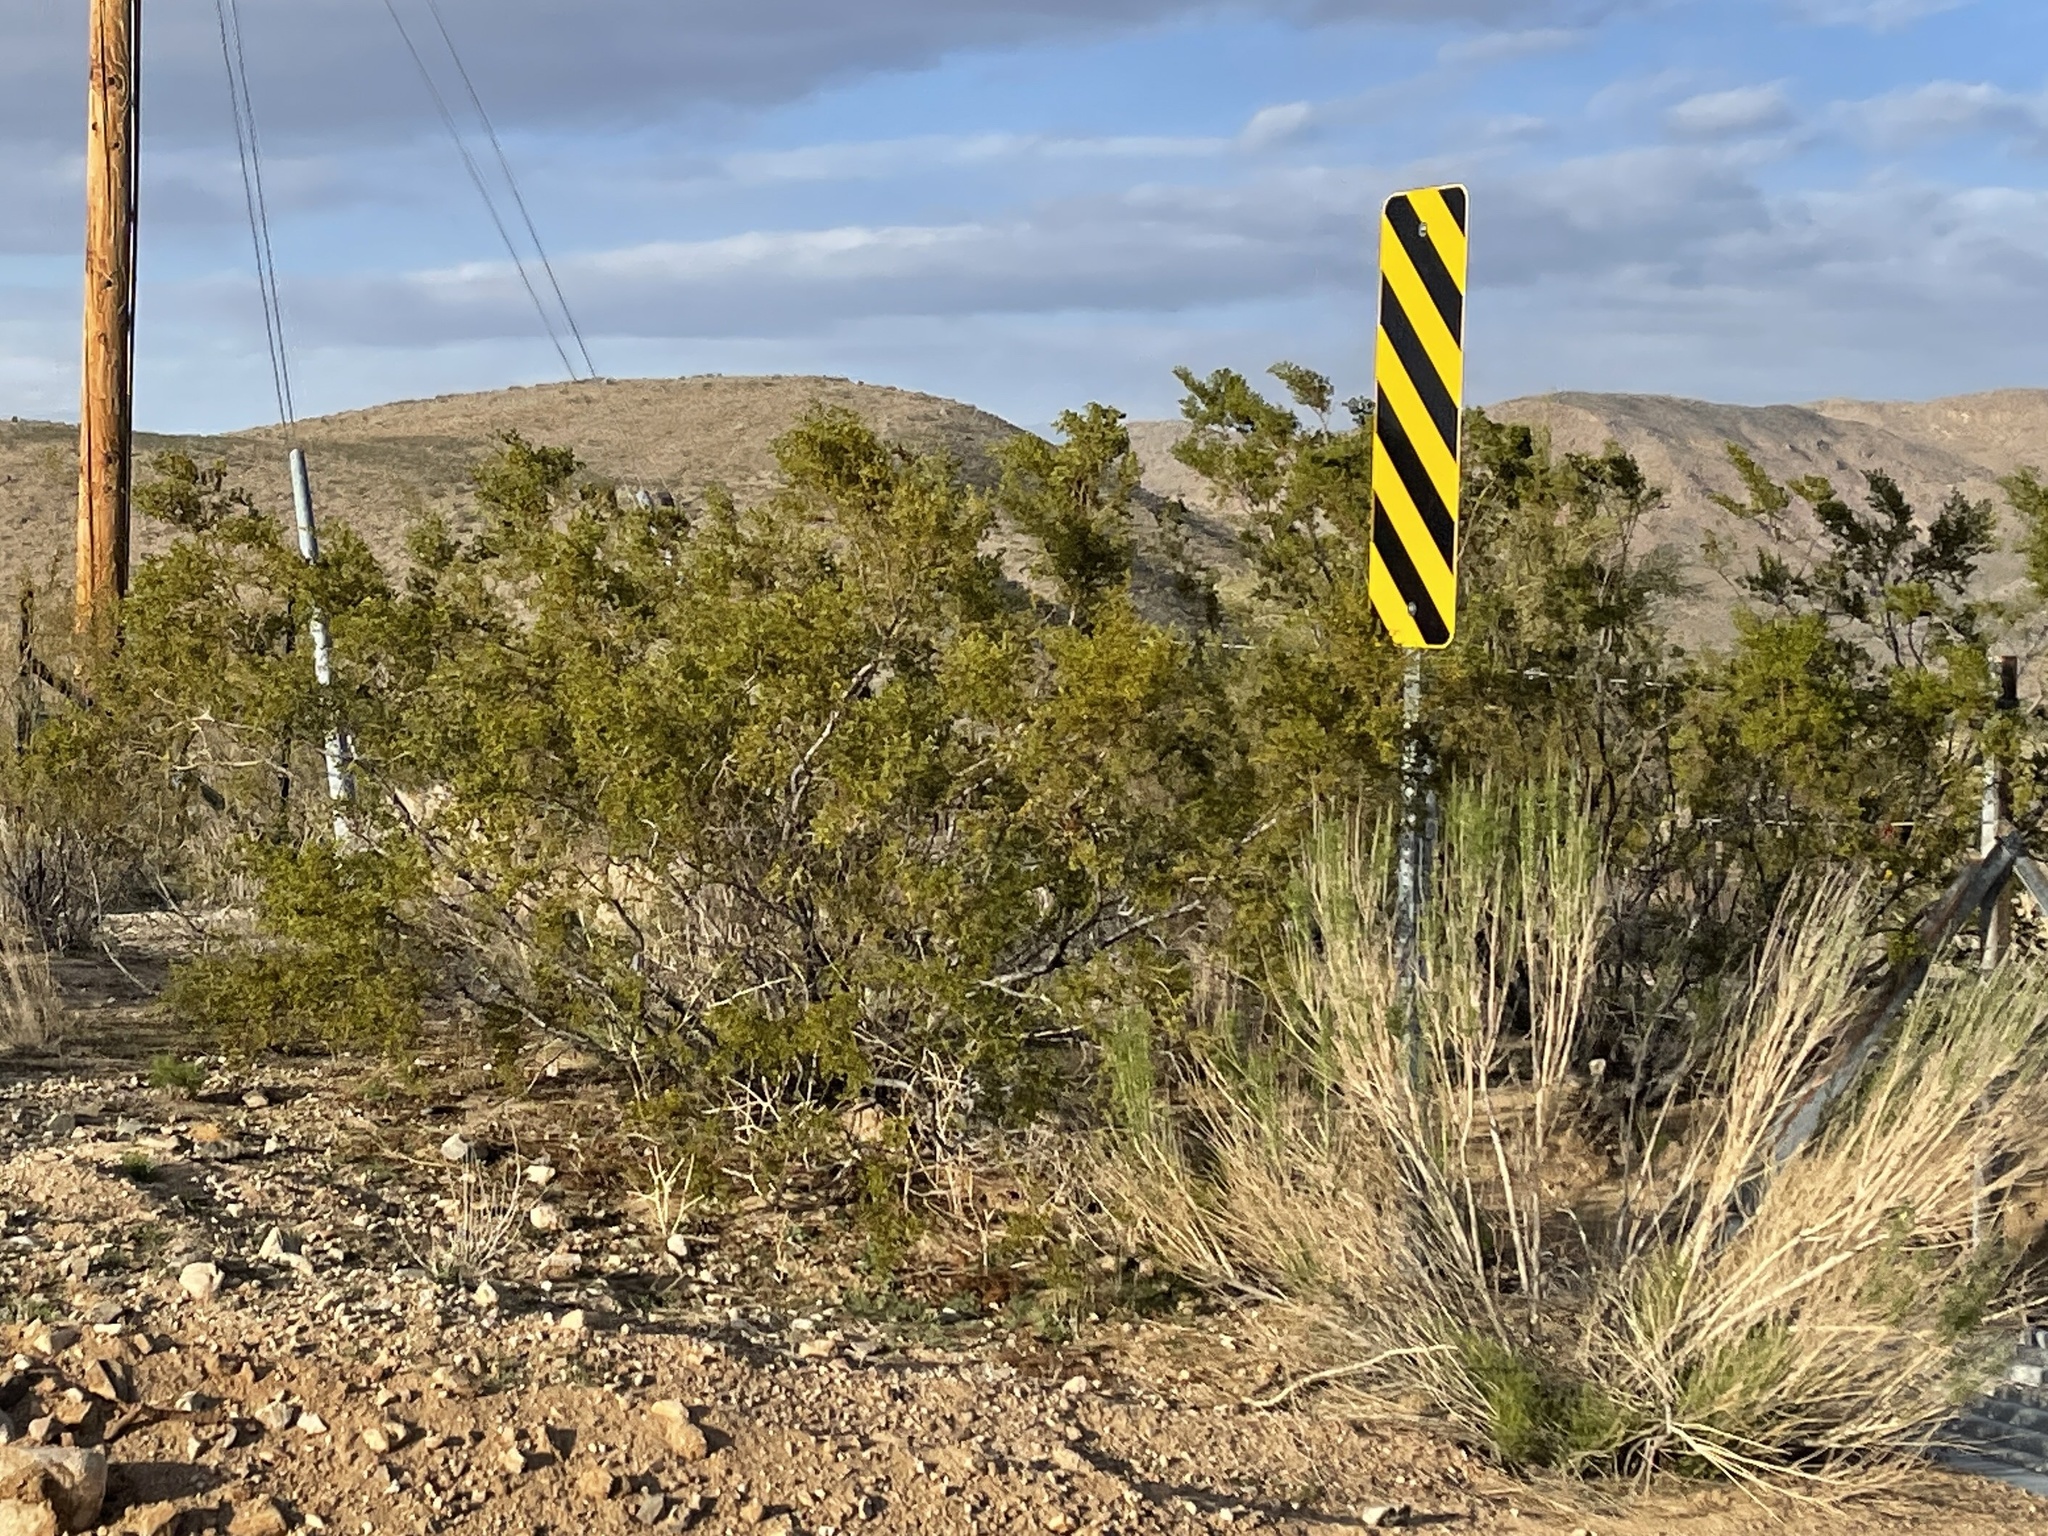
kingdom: Plantae
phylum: Tracheophyta
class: Magnoliopsida
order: Zygophyllales
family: Zygophyllaceae
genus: Larrea
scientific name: Larrea tridentata
